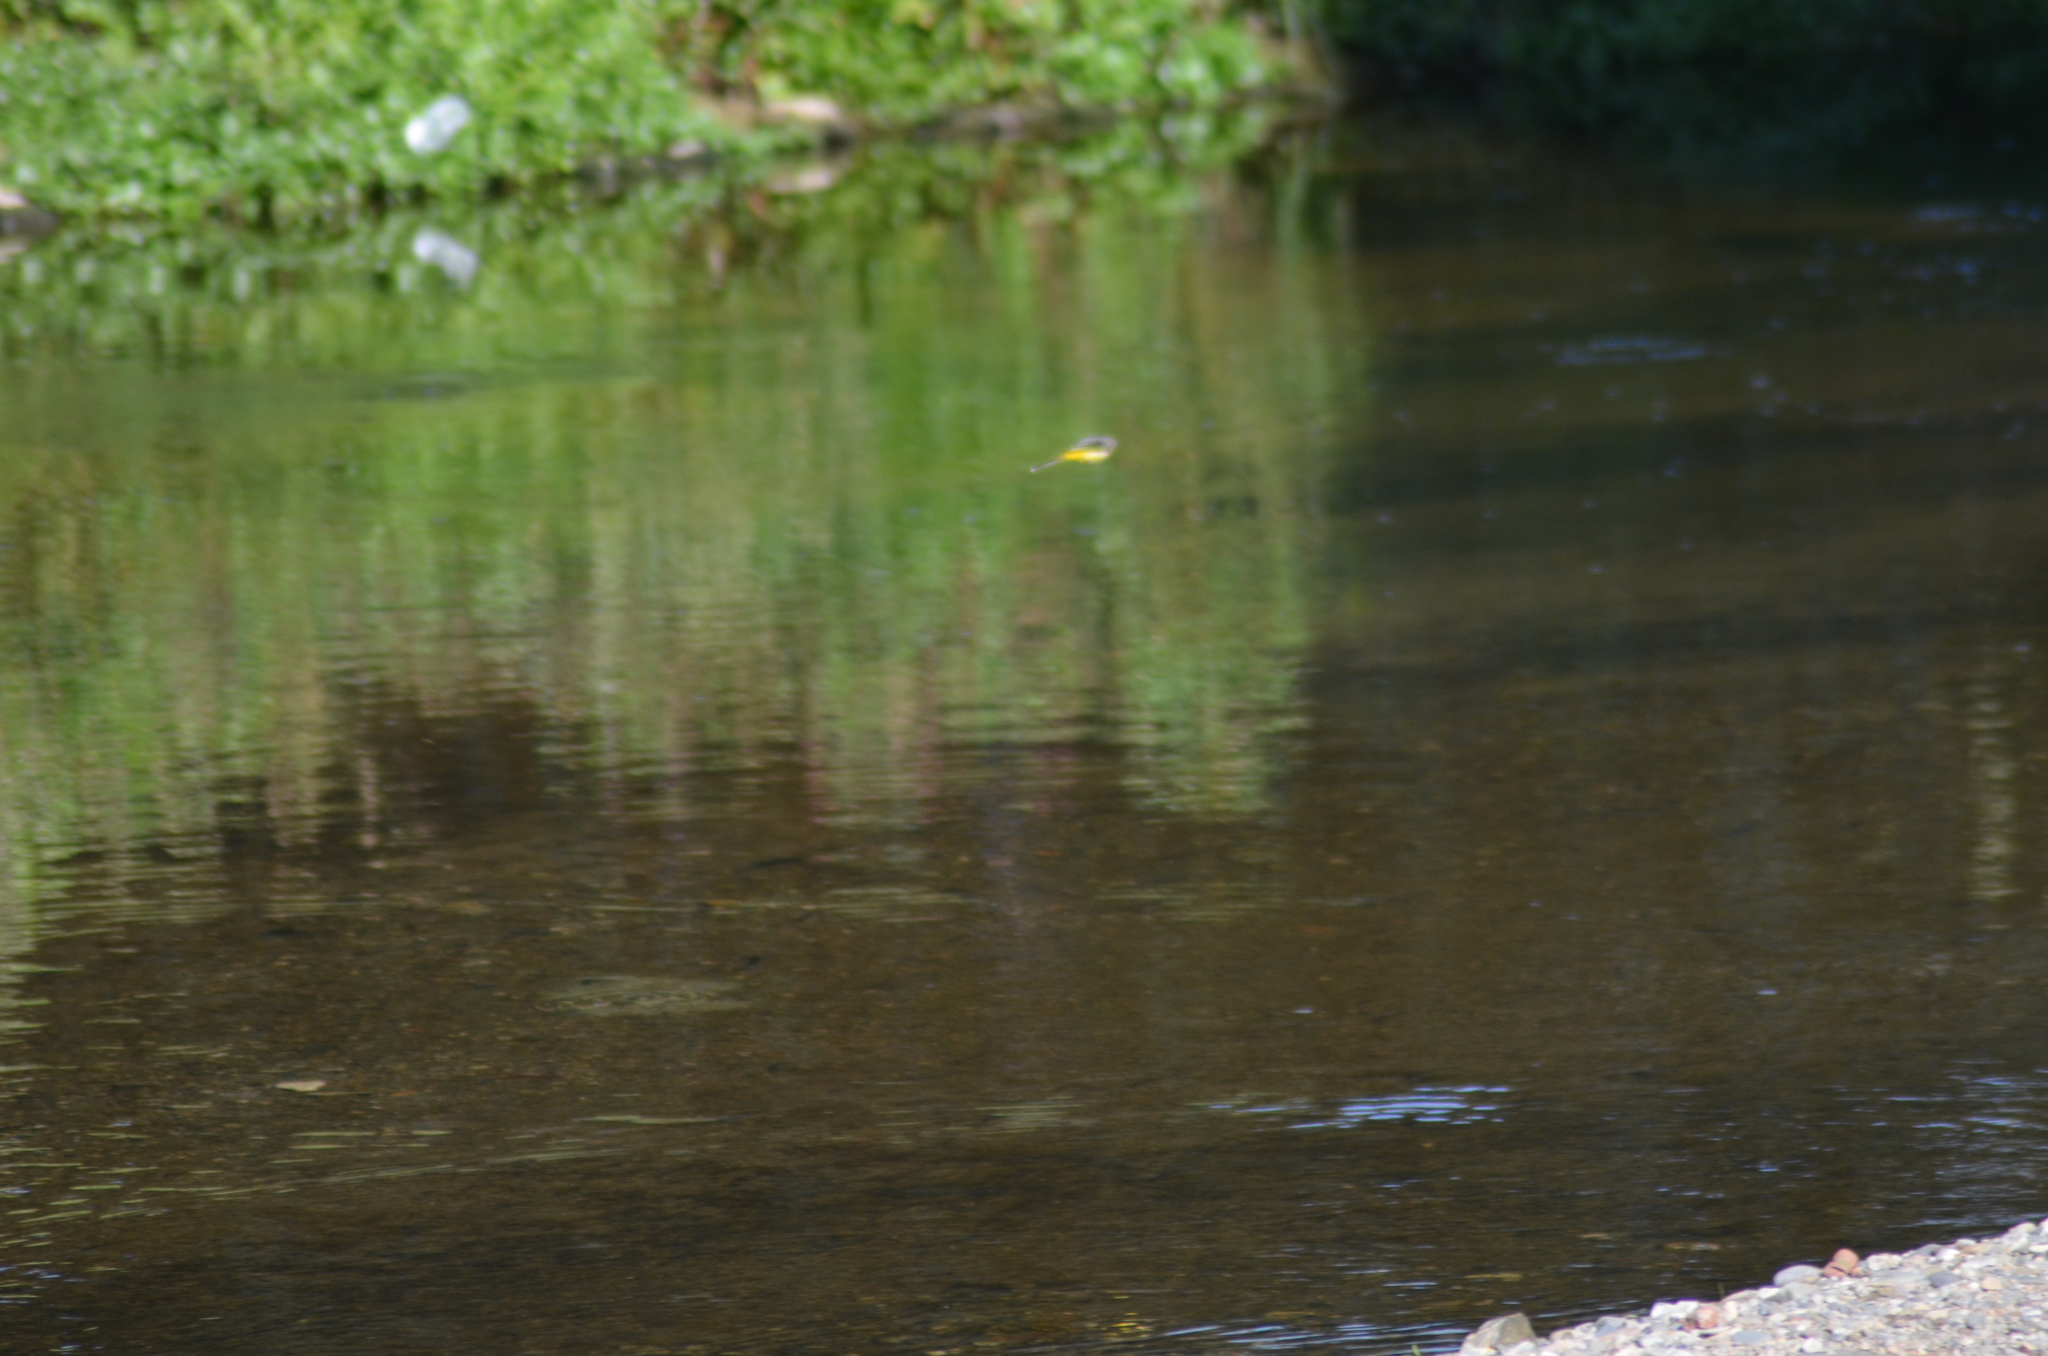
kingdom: Animalia
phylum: Chordata
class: Aves
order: Passeriformes
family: Motacillidae
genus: Motacilla
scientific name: Motacilla cinerea
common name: Grey wagtail
